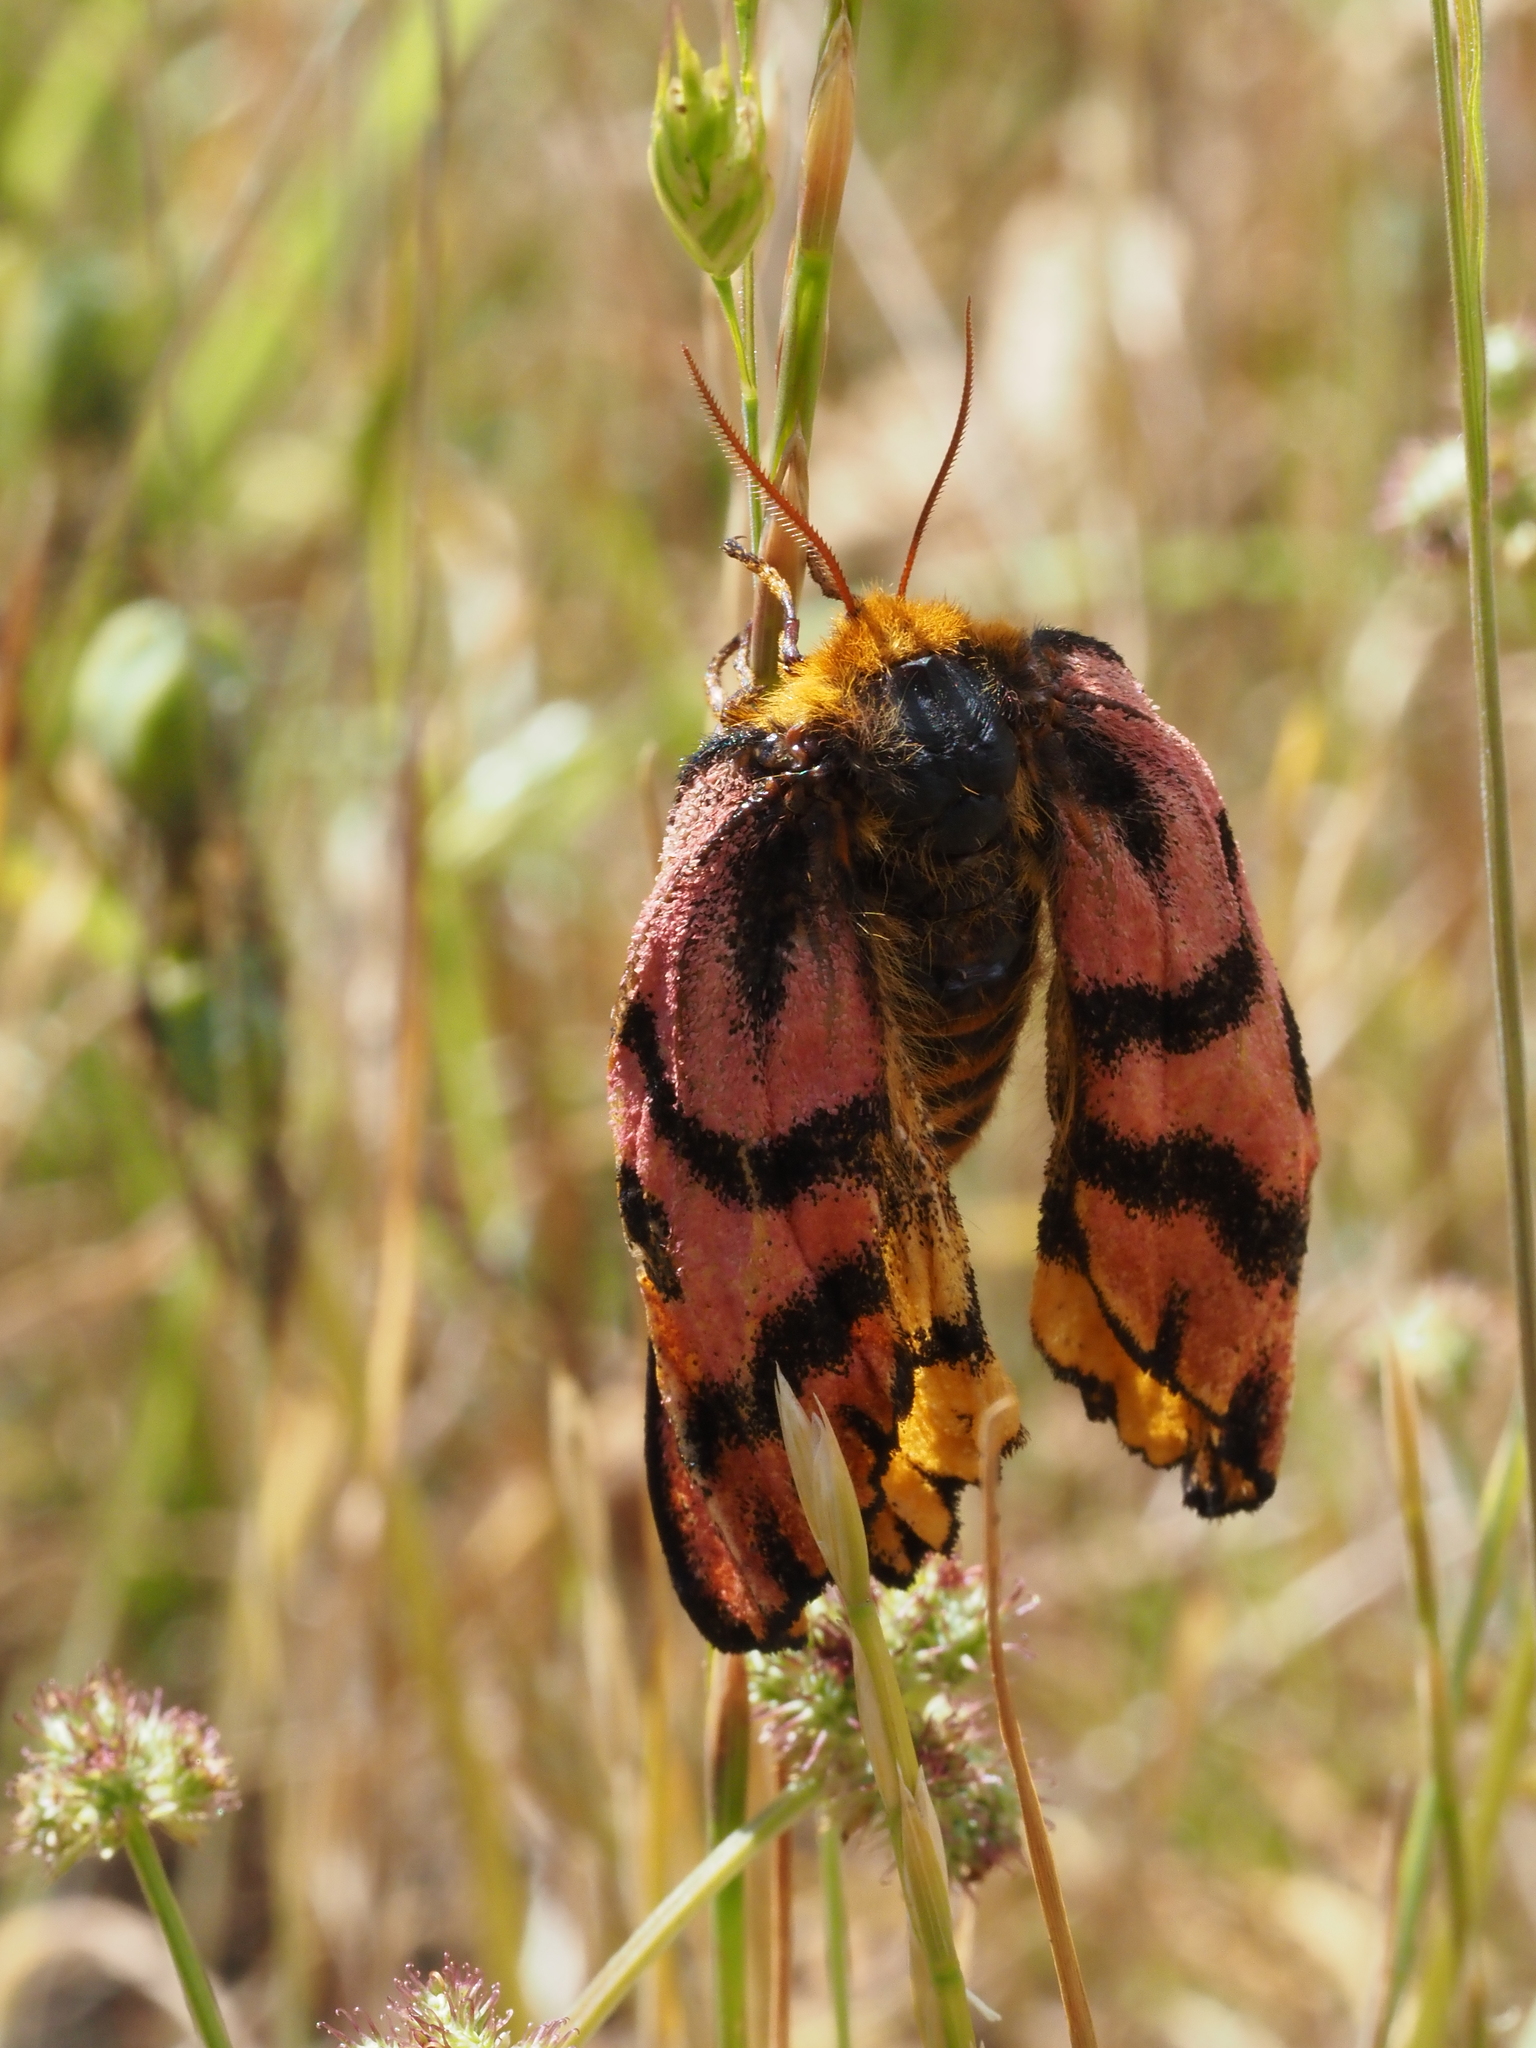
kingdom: Animalia
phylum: Arthropoda
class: Insecta
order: Lepidoptera
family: Saturniidae
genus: Hemileuca
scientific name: Hemileuca eglanterina
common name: Western sheepmoth
